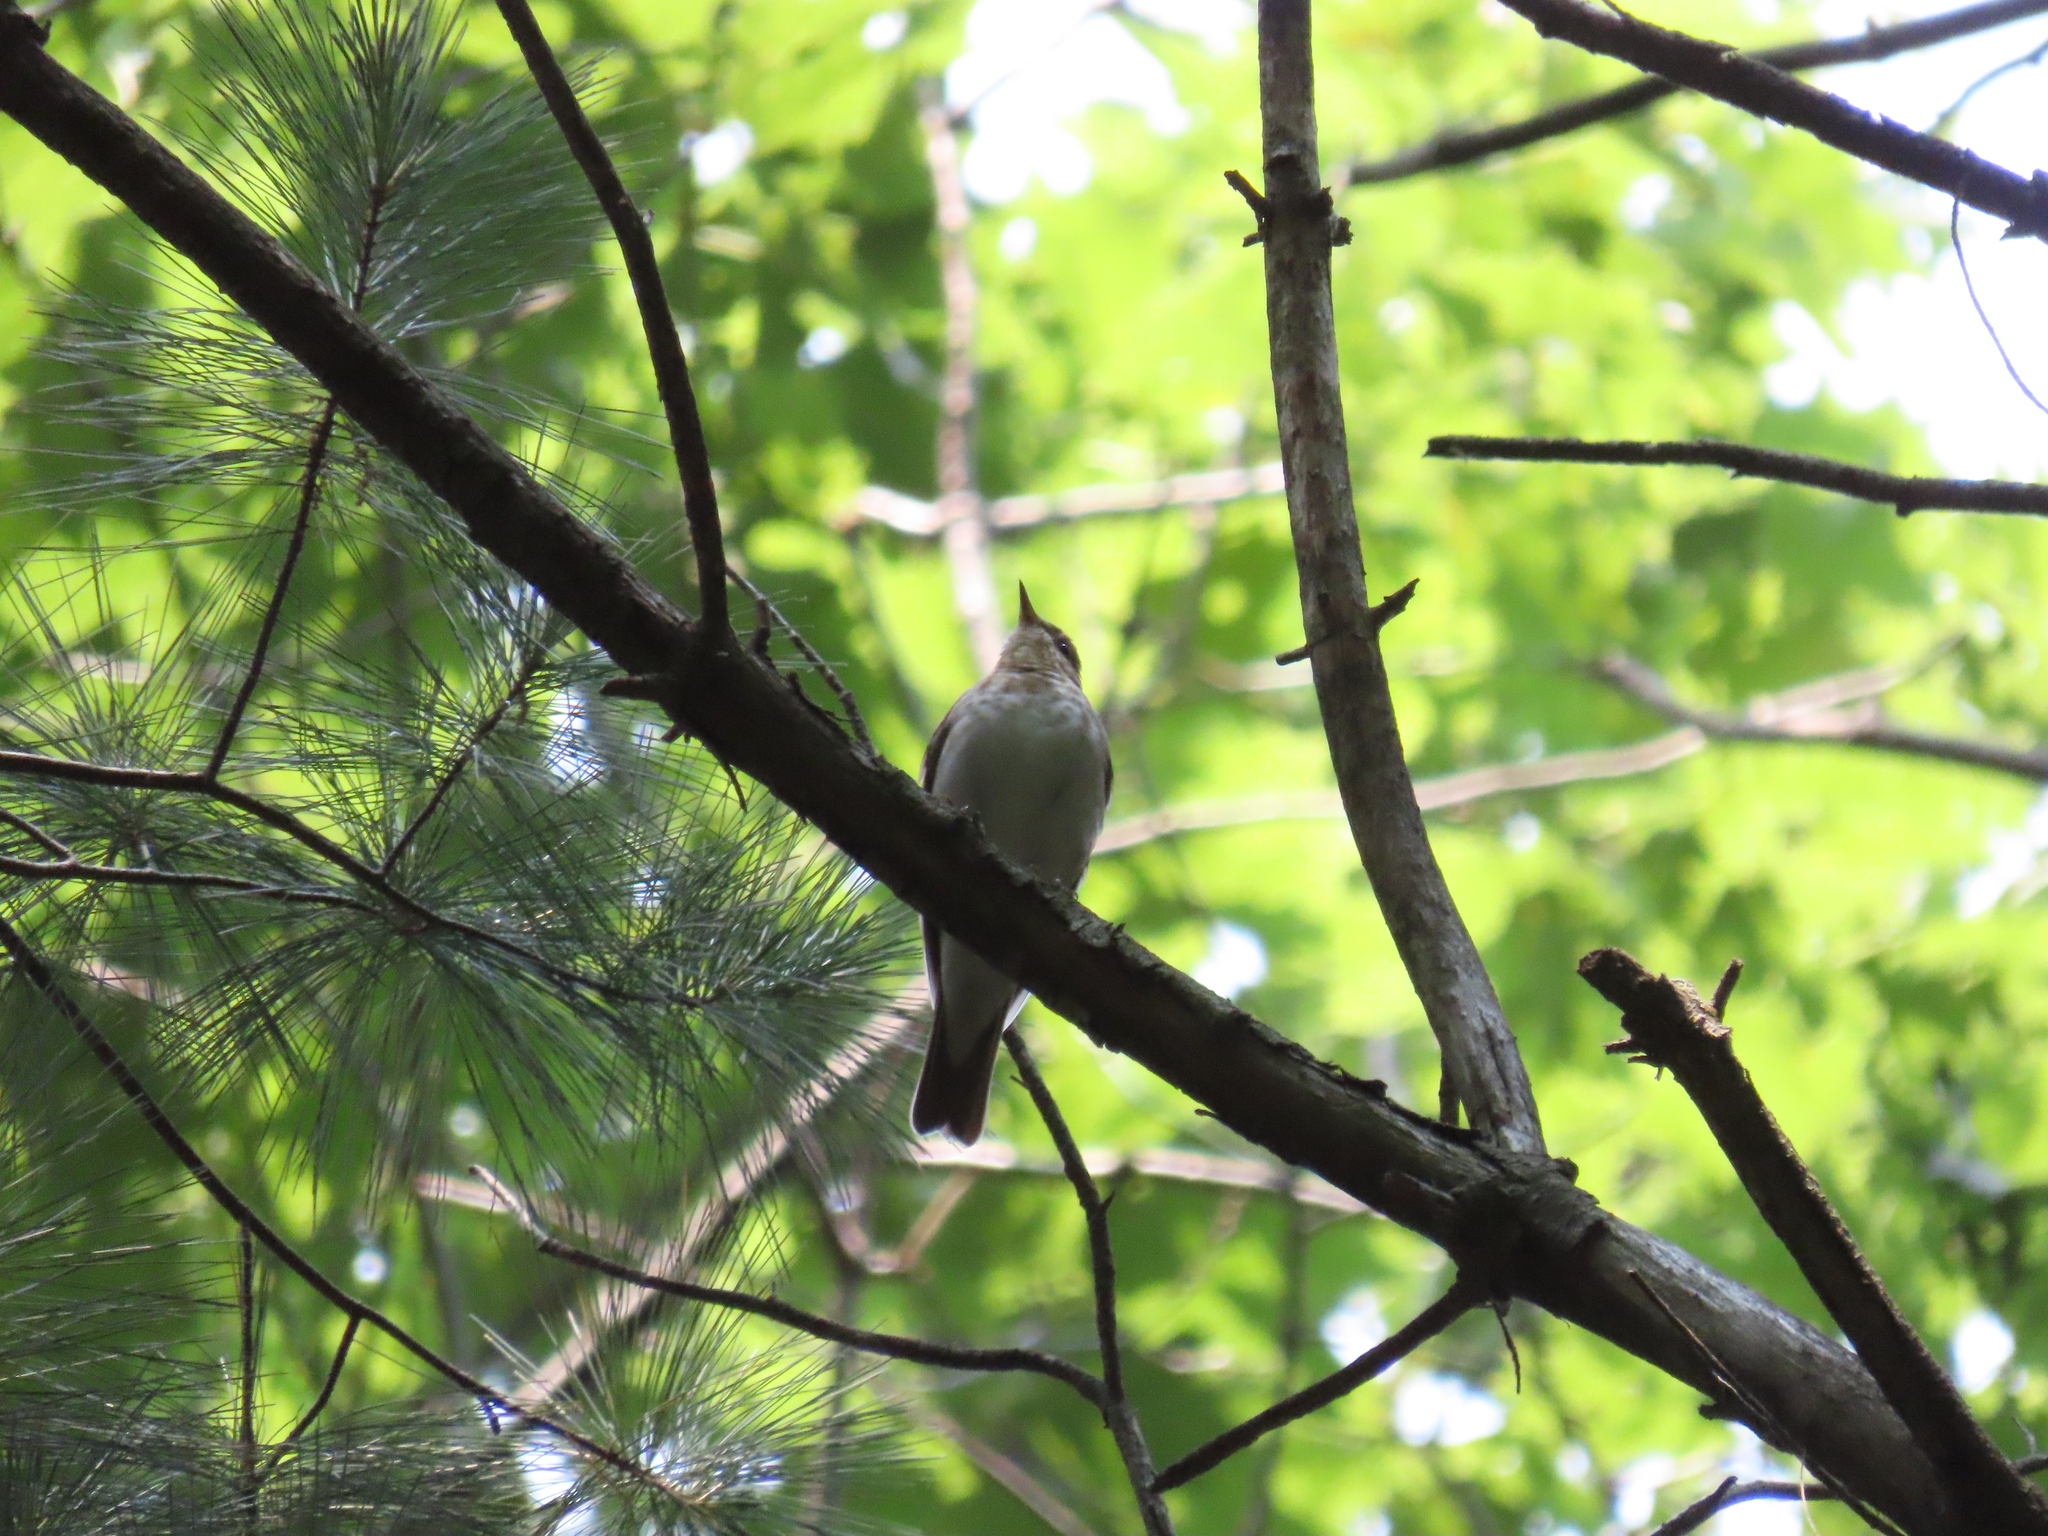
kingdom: Animalia
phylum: Chordata
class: Aves
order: Passeriformes
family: Turdidae
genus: Catharus
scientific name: Catharus fuscescens
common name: Veery
